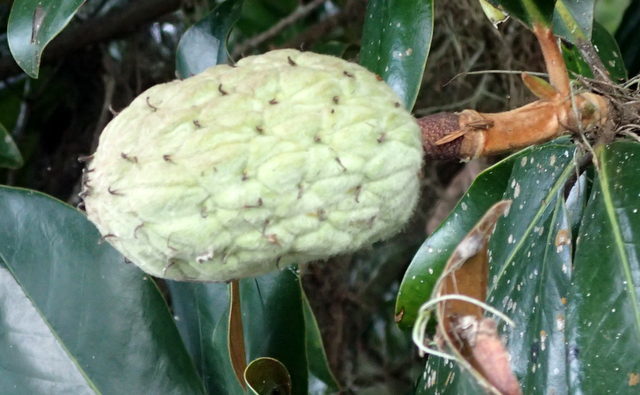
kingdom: Plantae
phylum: Tracheophyta
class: Magnoliopsida
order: Magnoliales
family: Magnoliaceae
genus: Magnolia
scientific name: Magnolia grandiflora
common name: Southern magnolia
